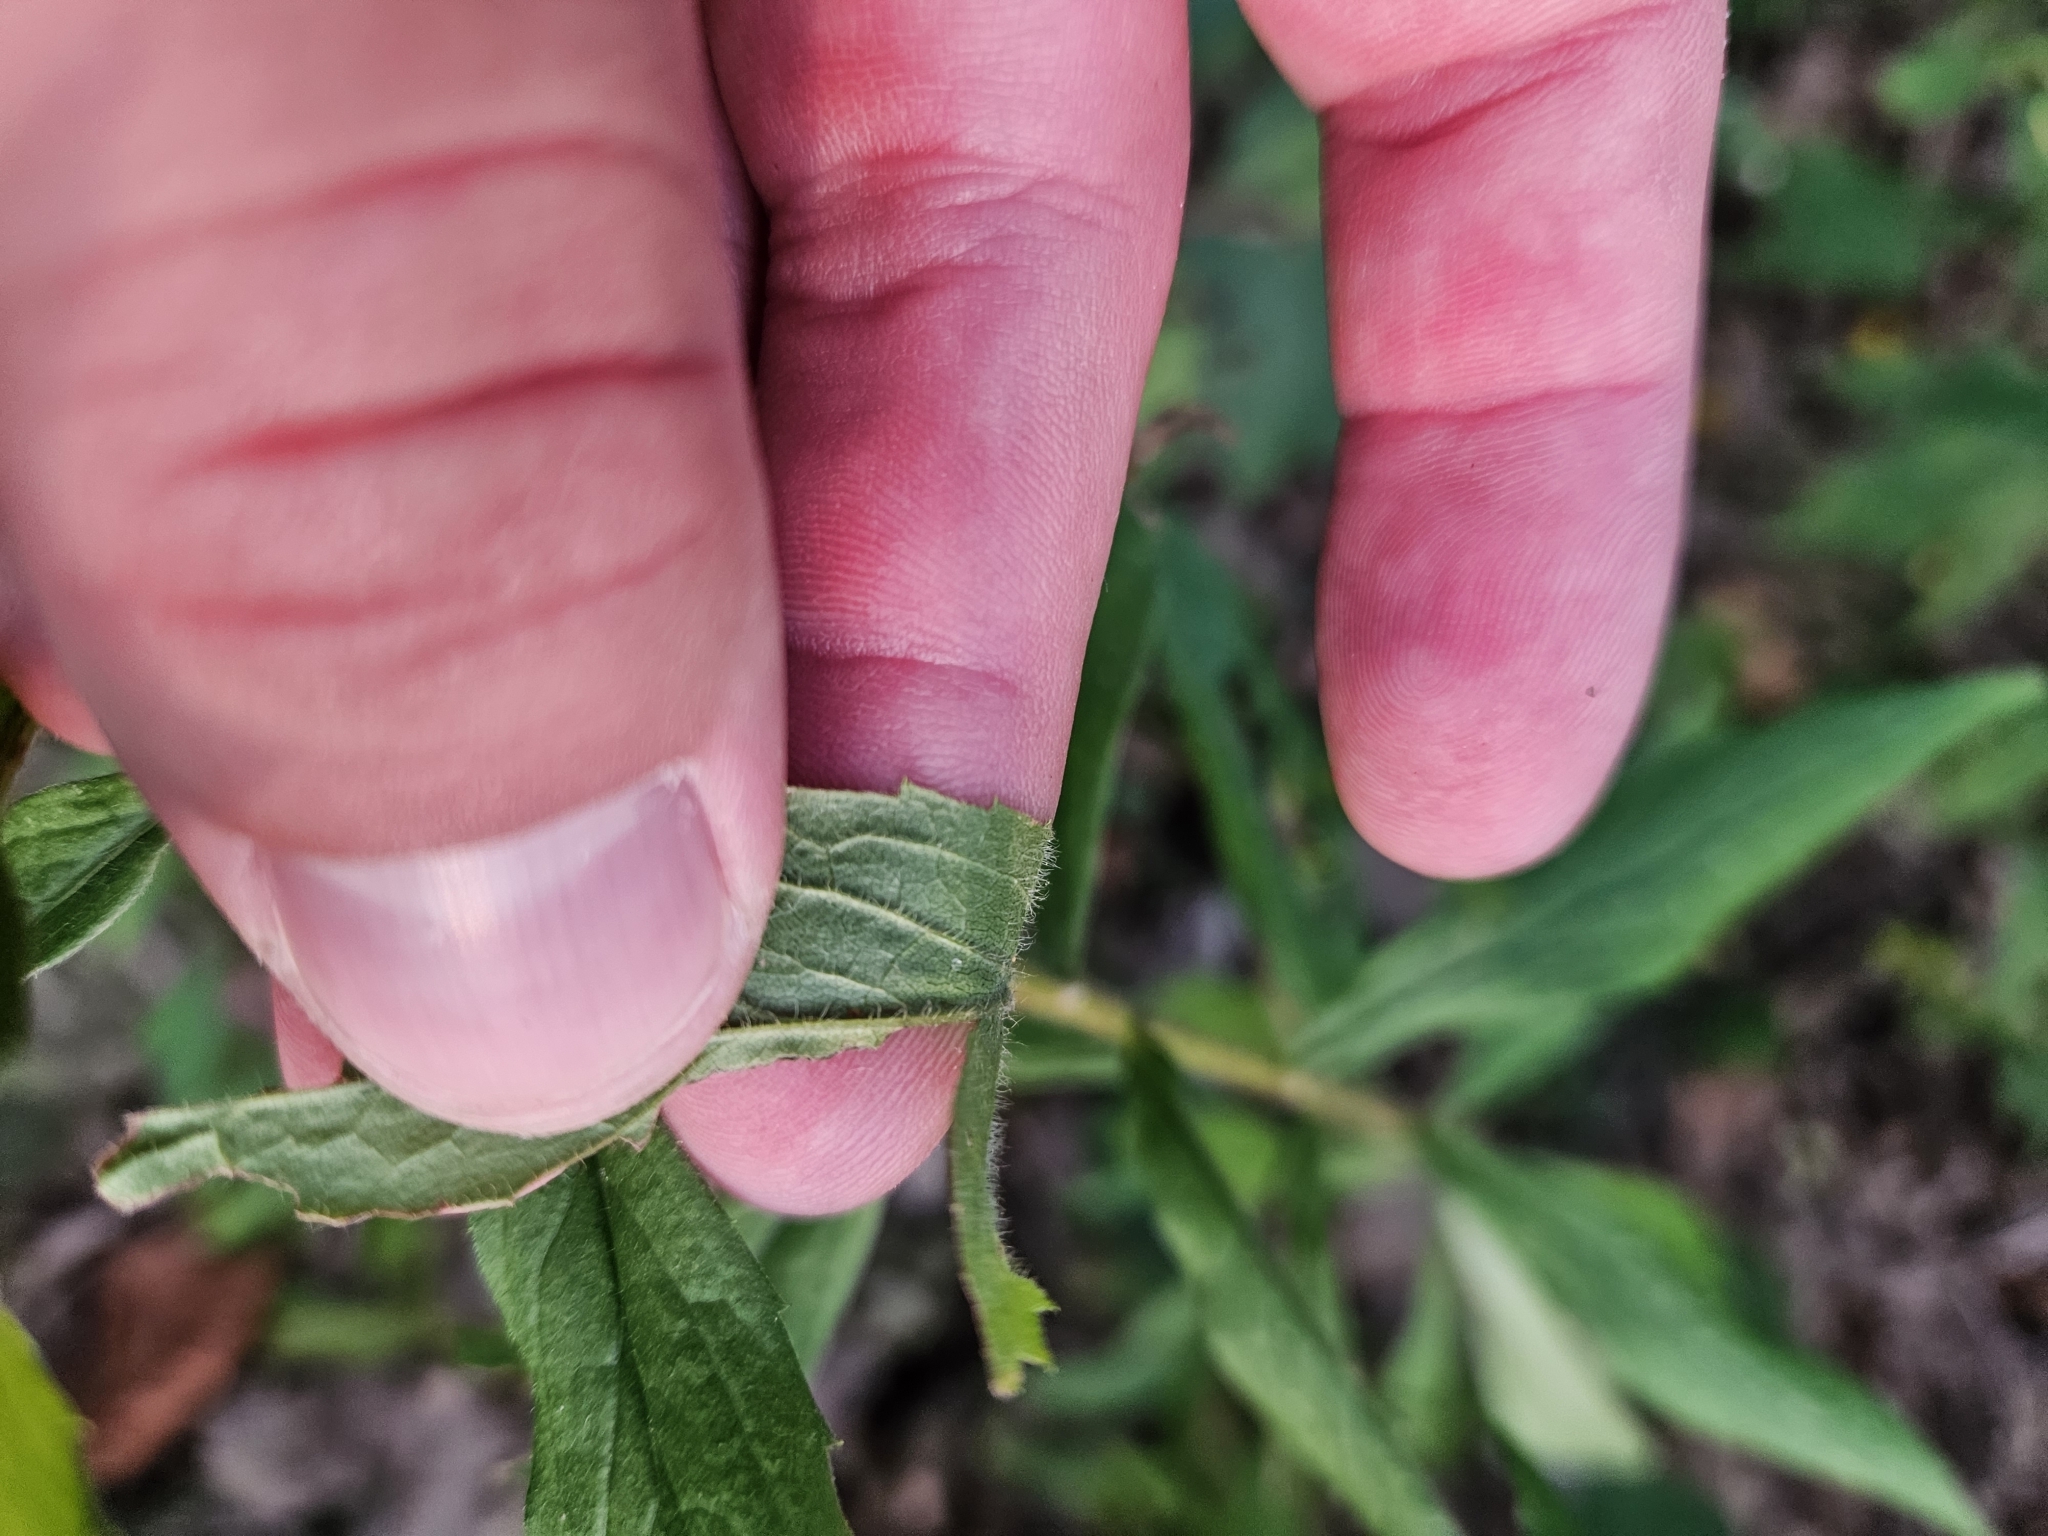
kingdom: Plantae
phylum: Tracheophyta
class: Magnoliopsida
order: Asterales
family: Asteraceae
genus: Solidago
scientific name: Solidago rugosa
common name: Rough-stemmed goldenrod
